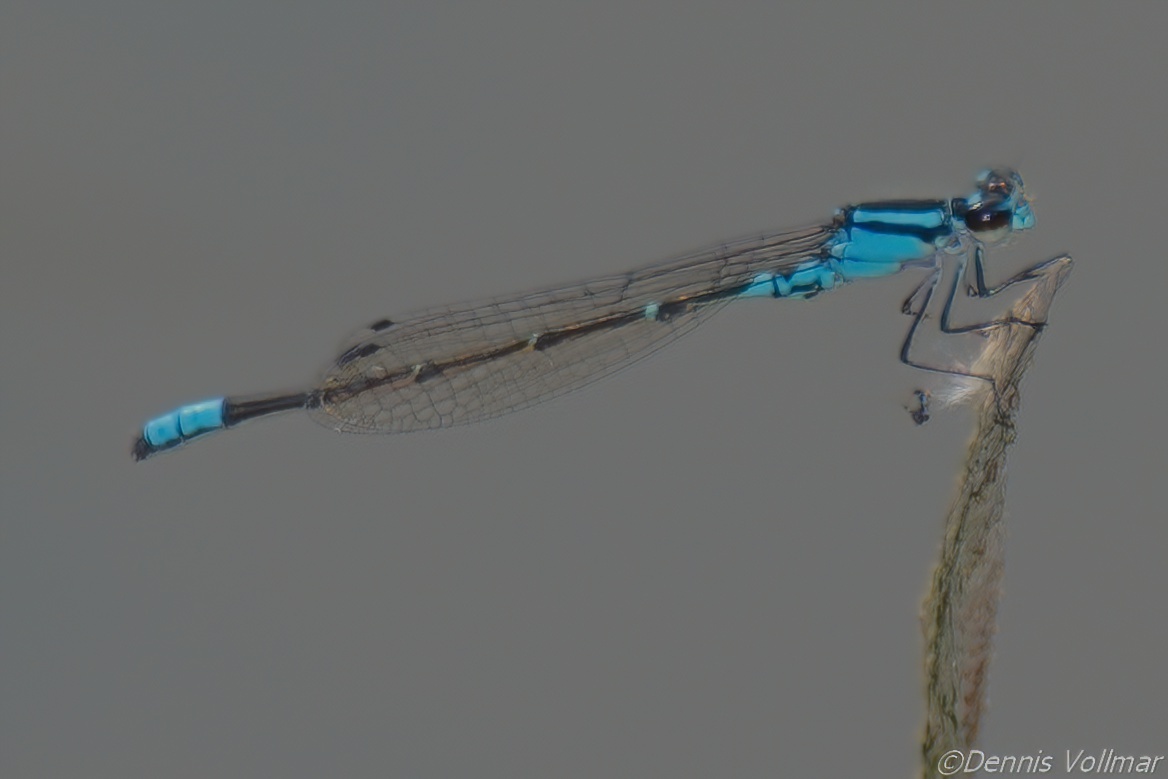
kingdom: Animalia
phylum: Arthropoda
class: Insecta
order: Odonata
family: Coenagrionidae
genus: Enallagma
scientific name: Enallagma geminatum
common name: Skimming bluet
